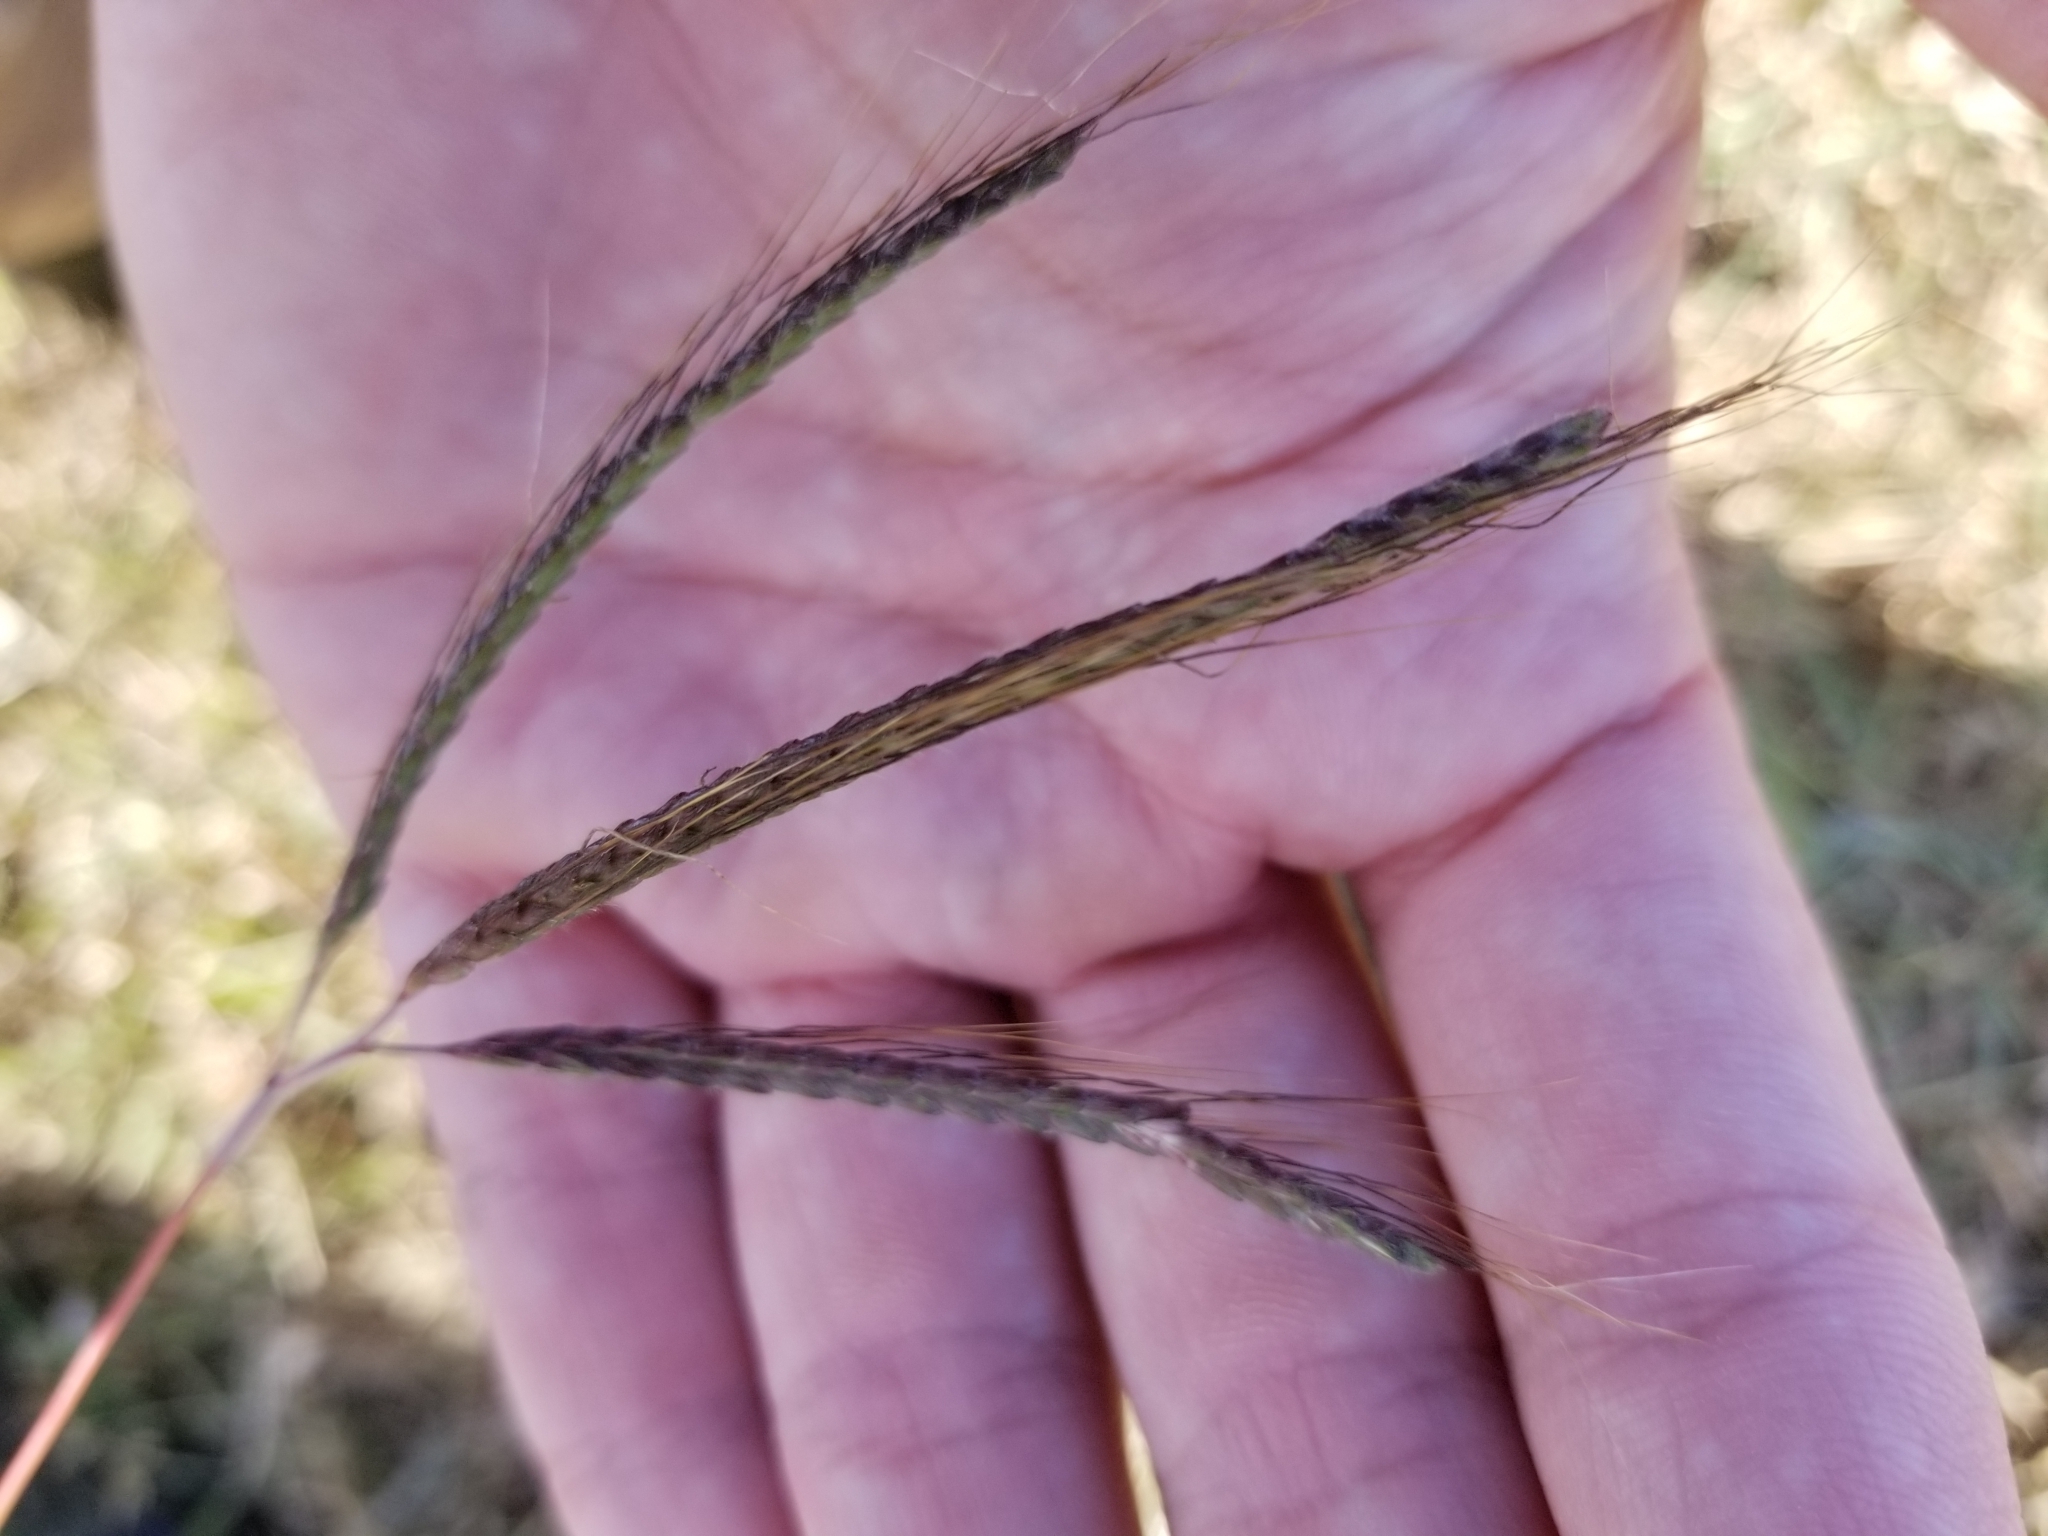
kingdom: Plantae
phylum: Tracheophyta
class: Liliopsida
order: Poales
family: Poaceae
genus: Dichanthium
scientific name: Dichanthium aristatum
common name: Angleton bluestem
